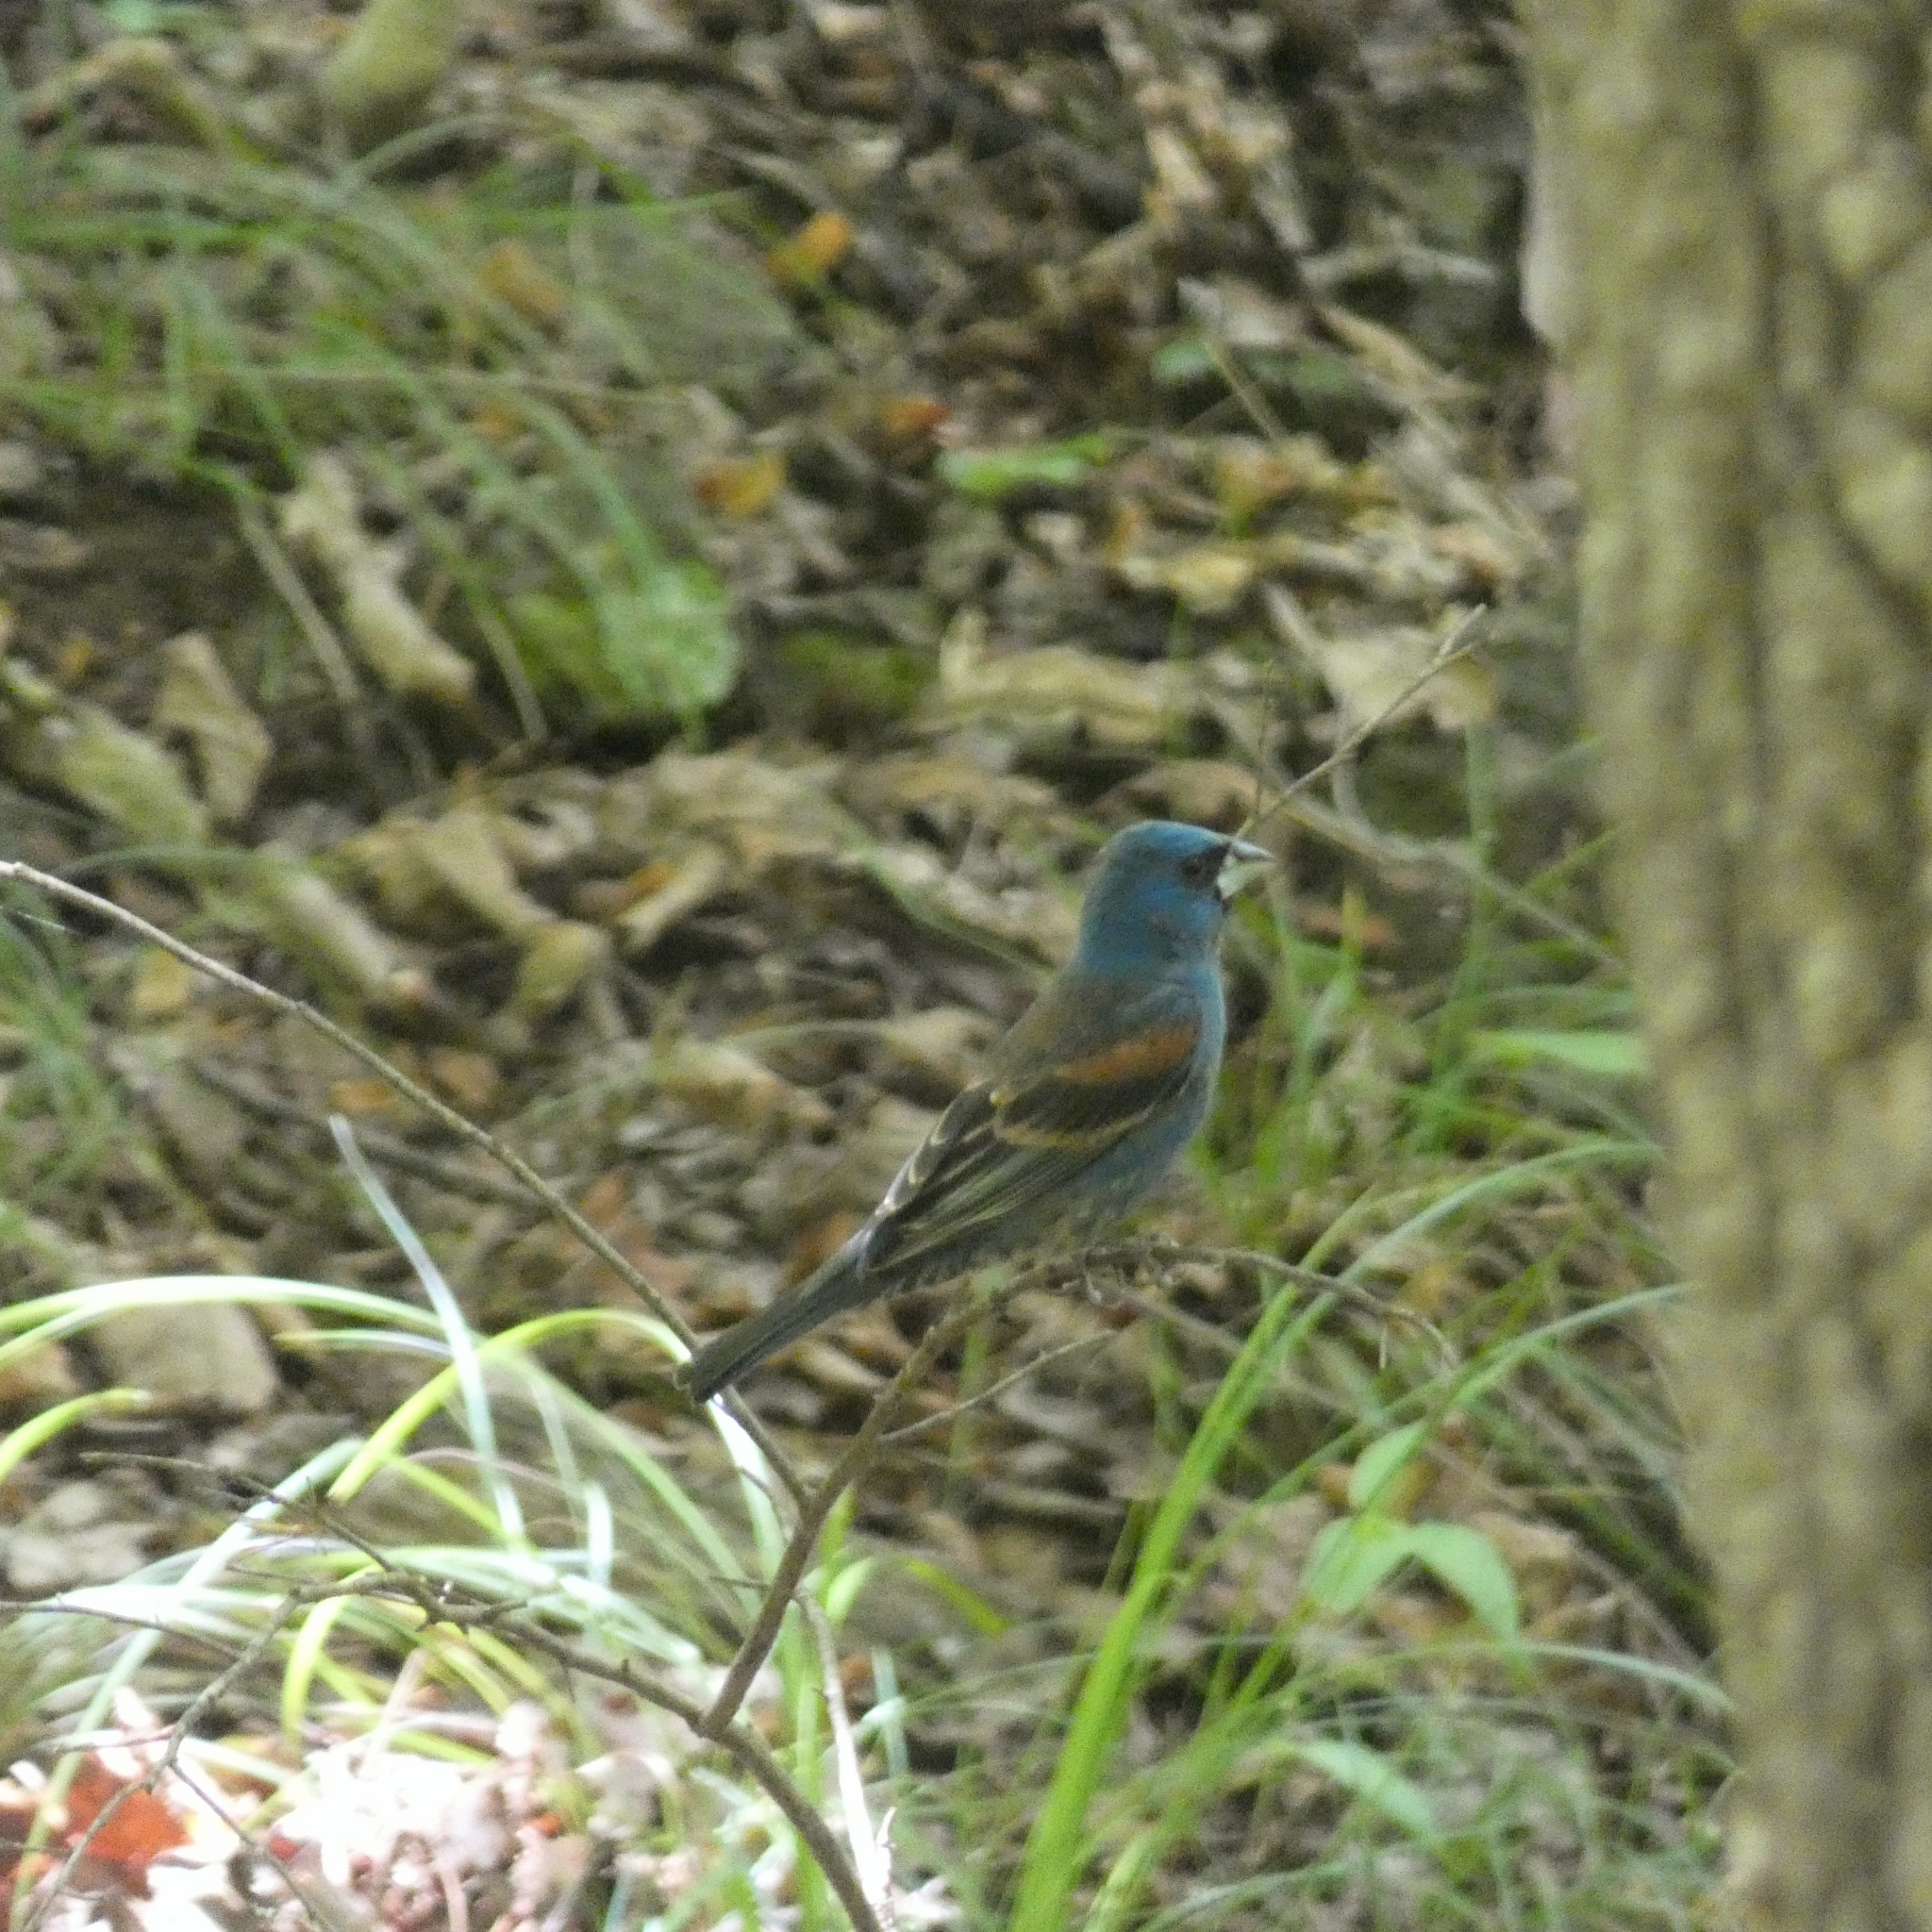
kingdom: Animalia
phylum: Chordata
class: Aves
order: Passeriformes
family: Cardinalidae
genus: Passerina
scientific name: Passerina caerulea
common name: Blue grosbeak
